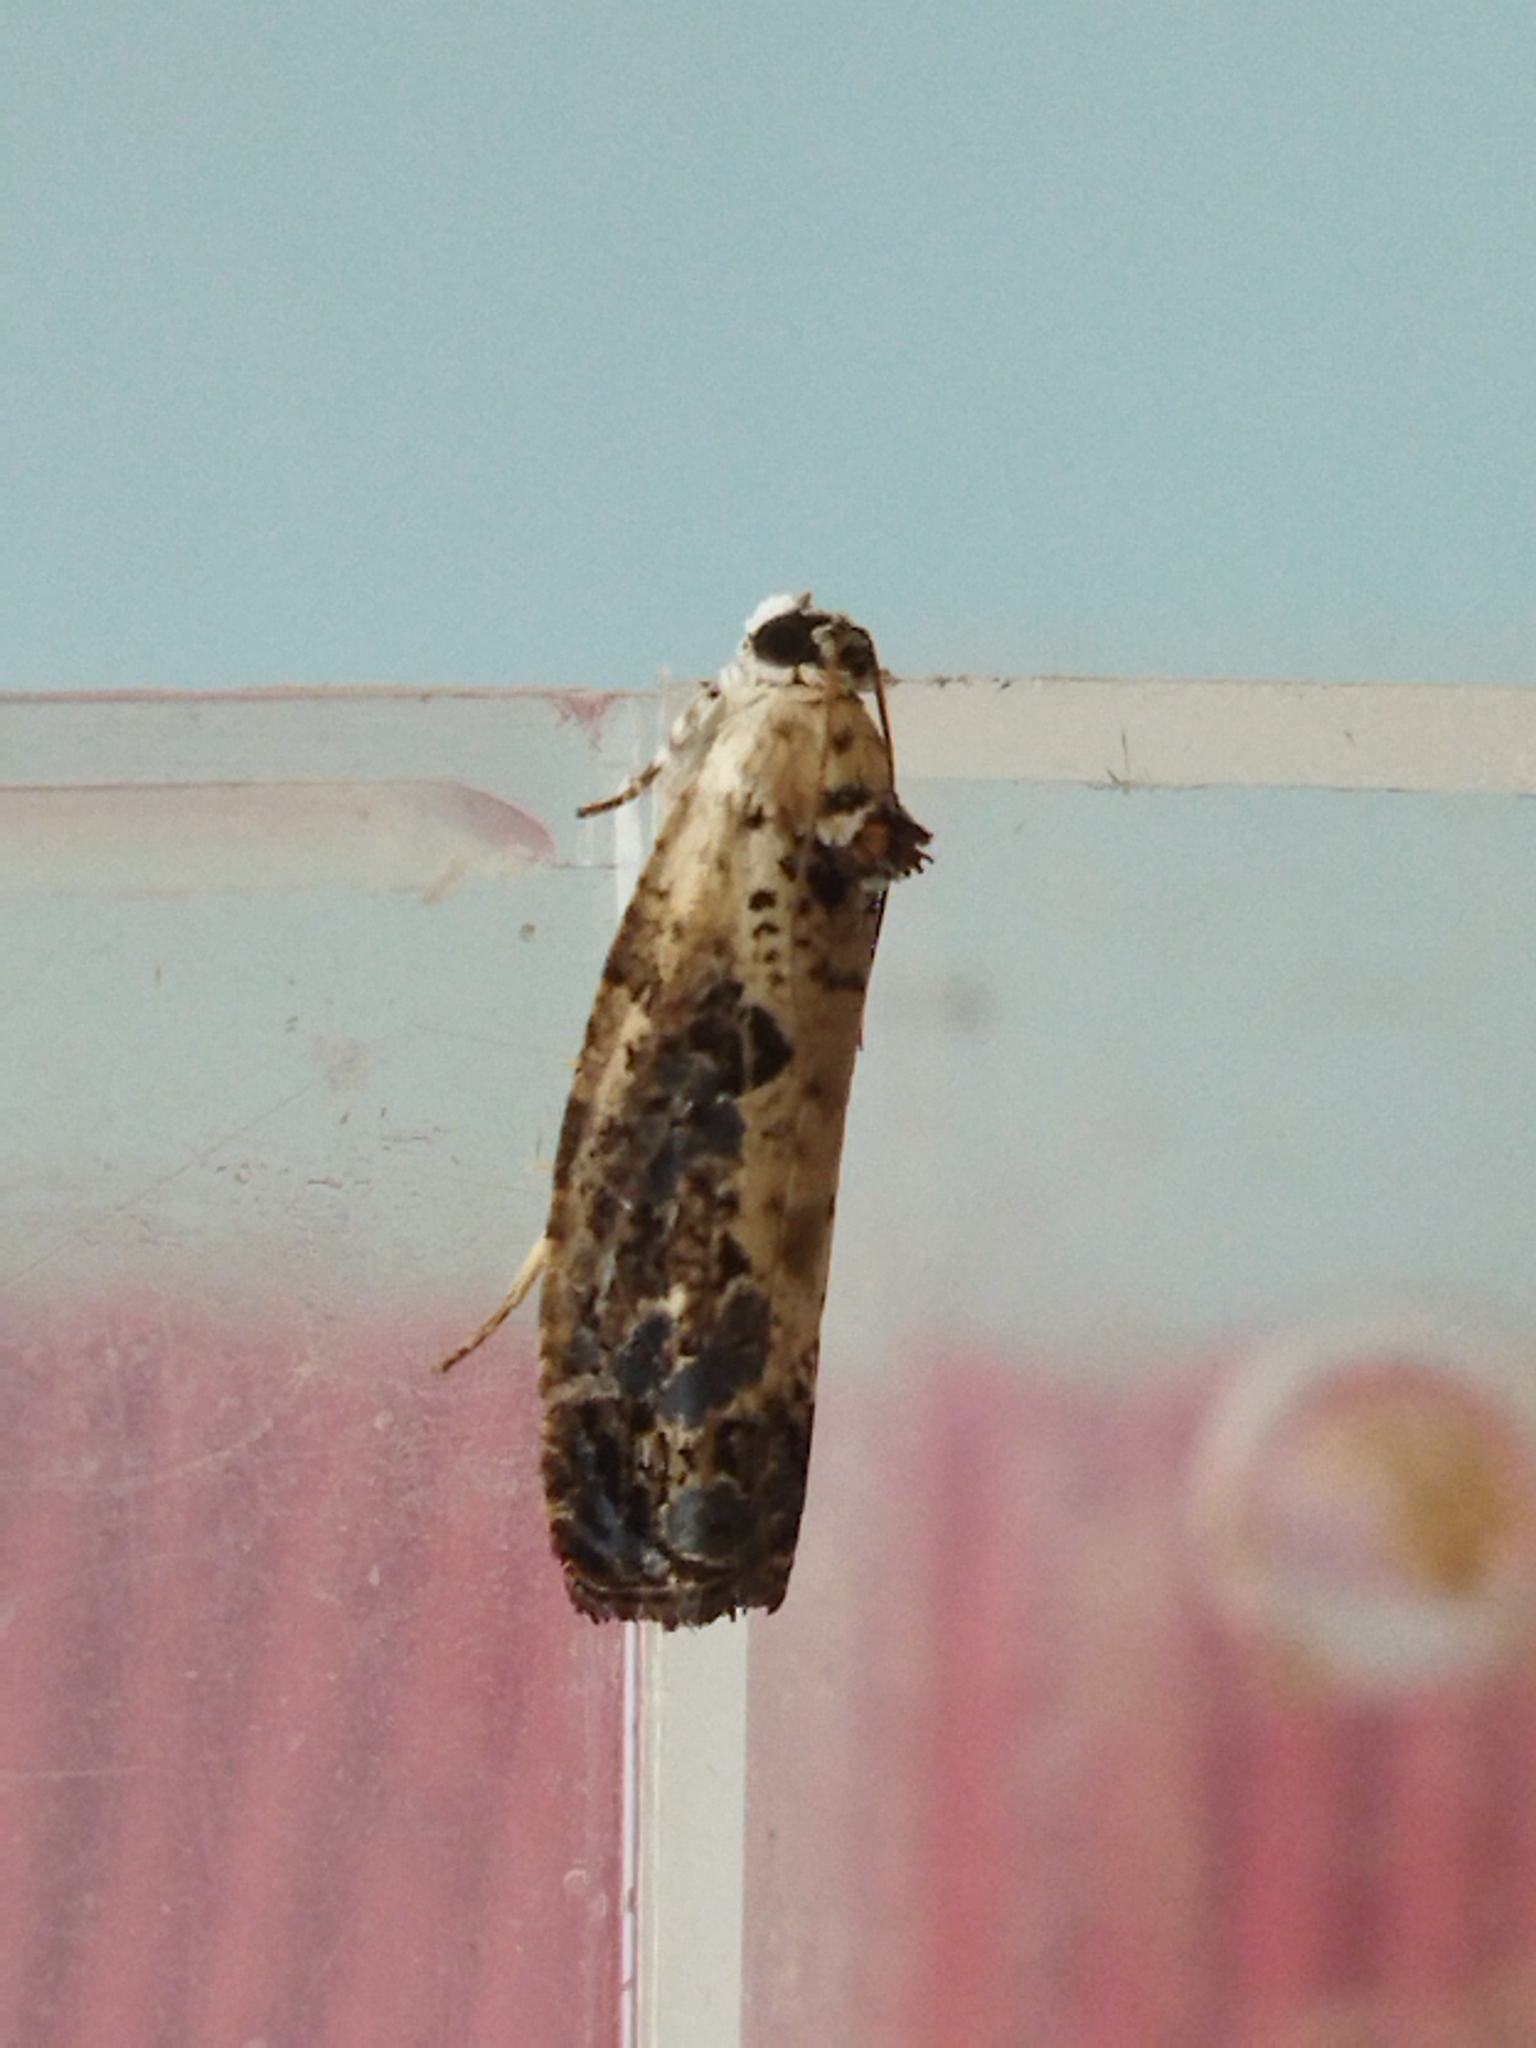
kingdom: Animalia
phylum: Arthropoda
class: Insecta
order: Lepidoptera
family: Tortricidae
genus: Hedya
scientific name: Hedya salicella
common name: Large tortricid moth
